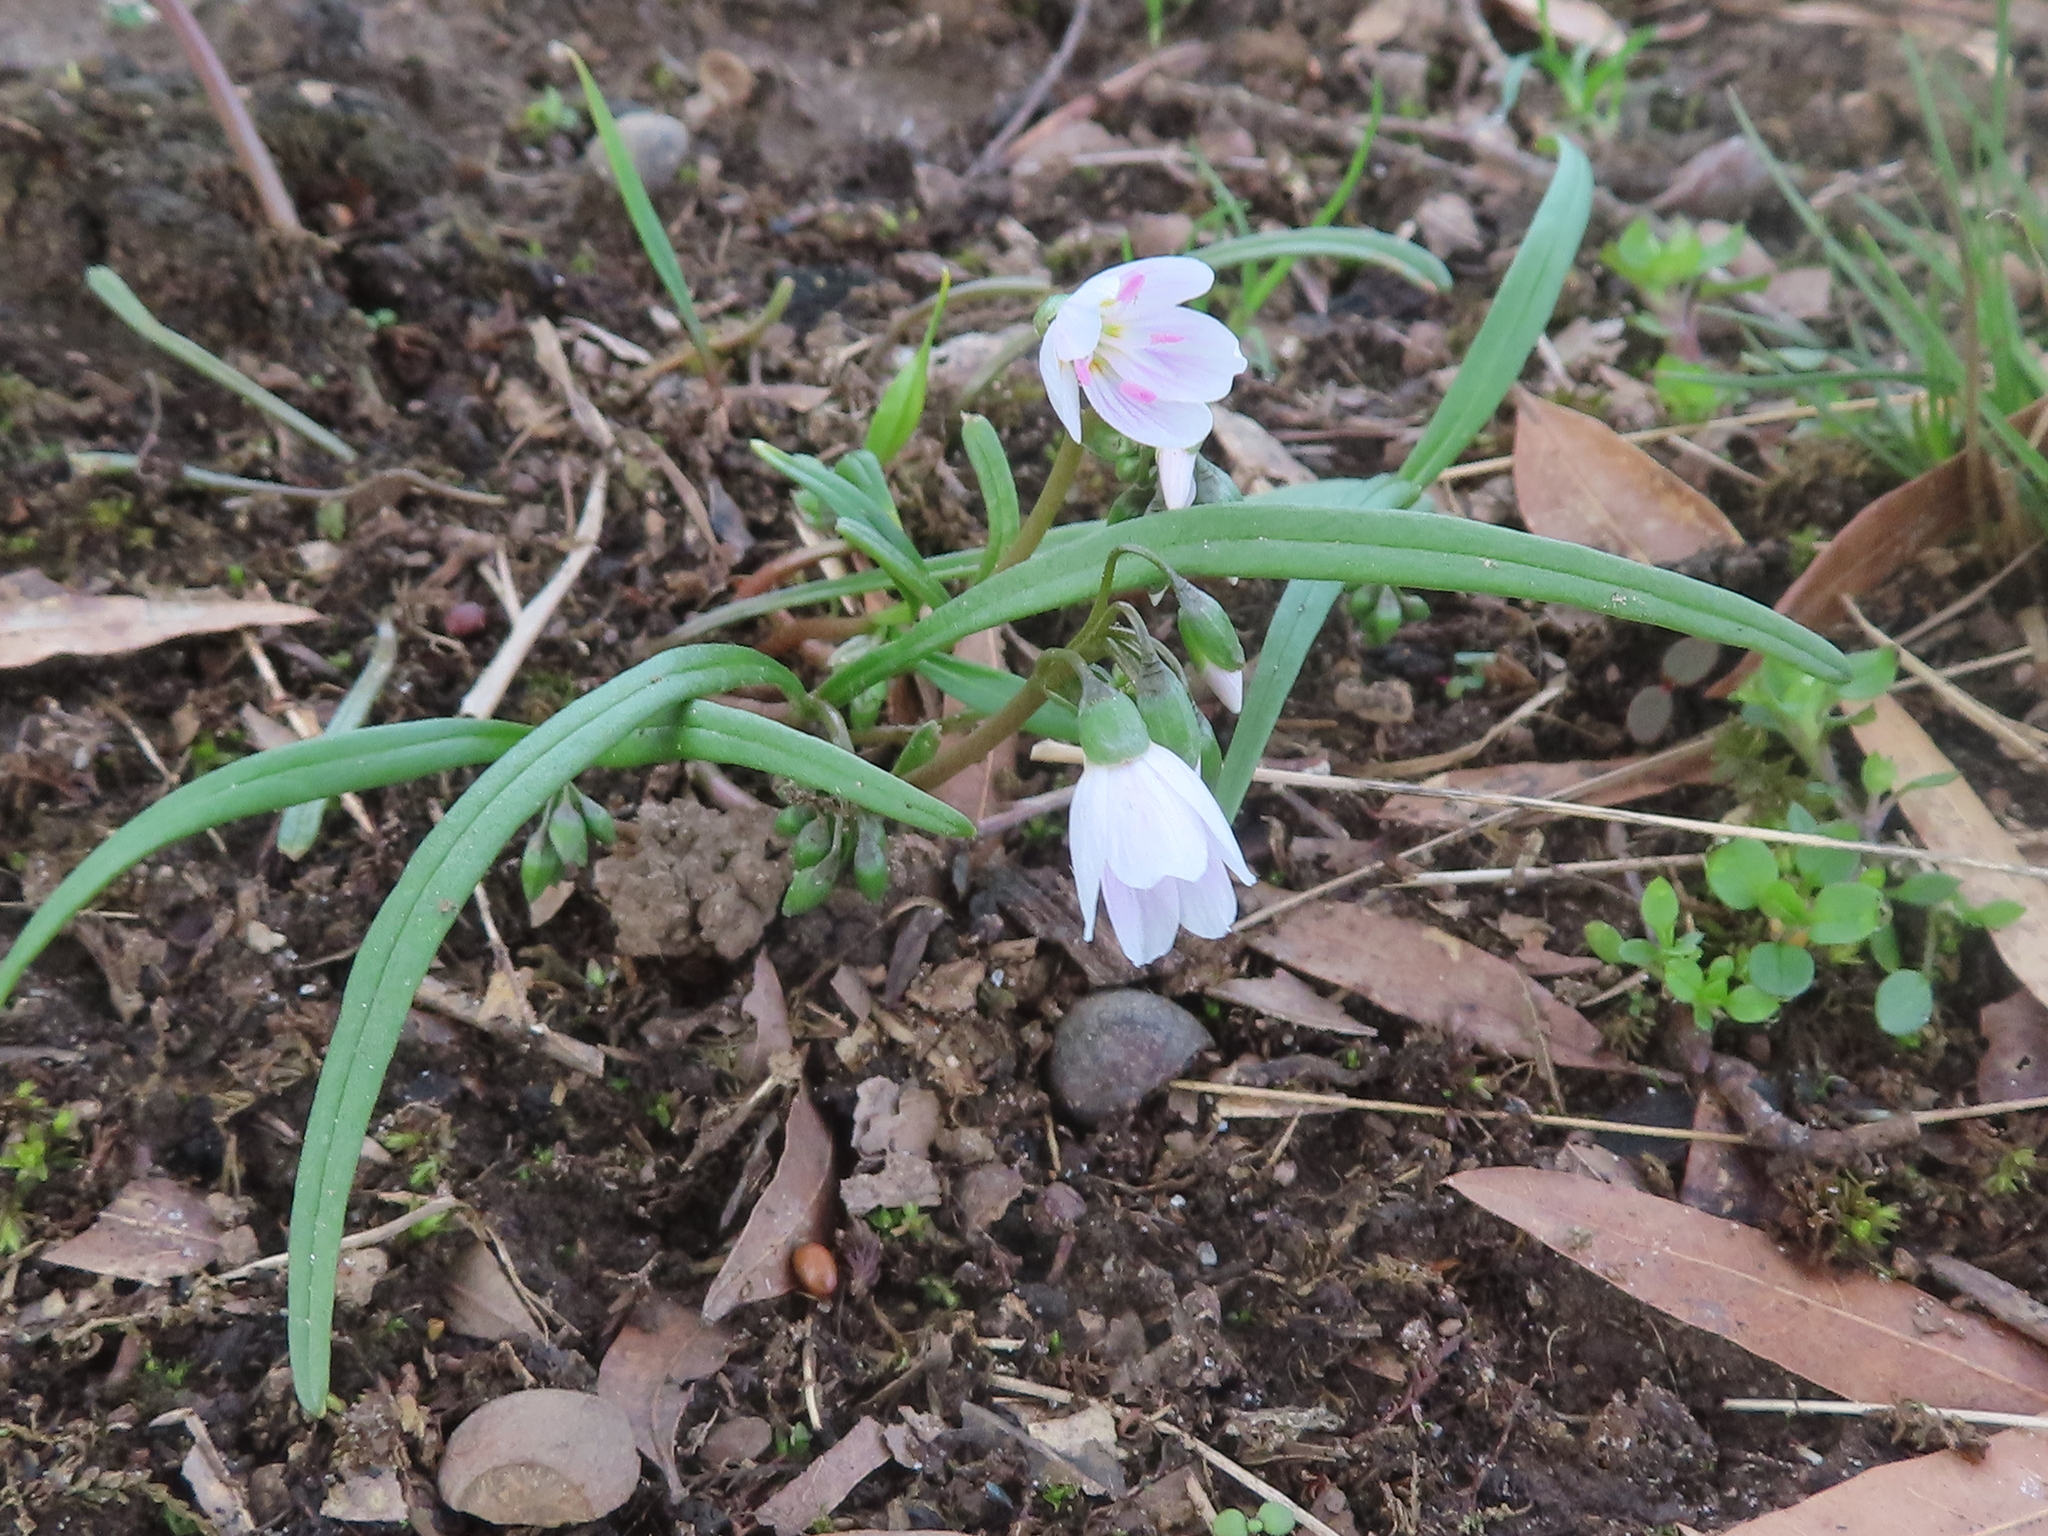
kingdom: Plantae
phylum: Tracheophyta
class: Magnoliopsida
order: Caryophyllales
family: Montiaceae
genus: Claytonia
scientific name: Claytonia virginica
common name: Virginia springbeauty
